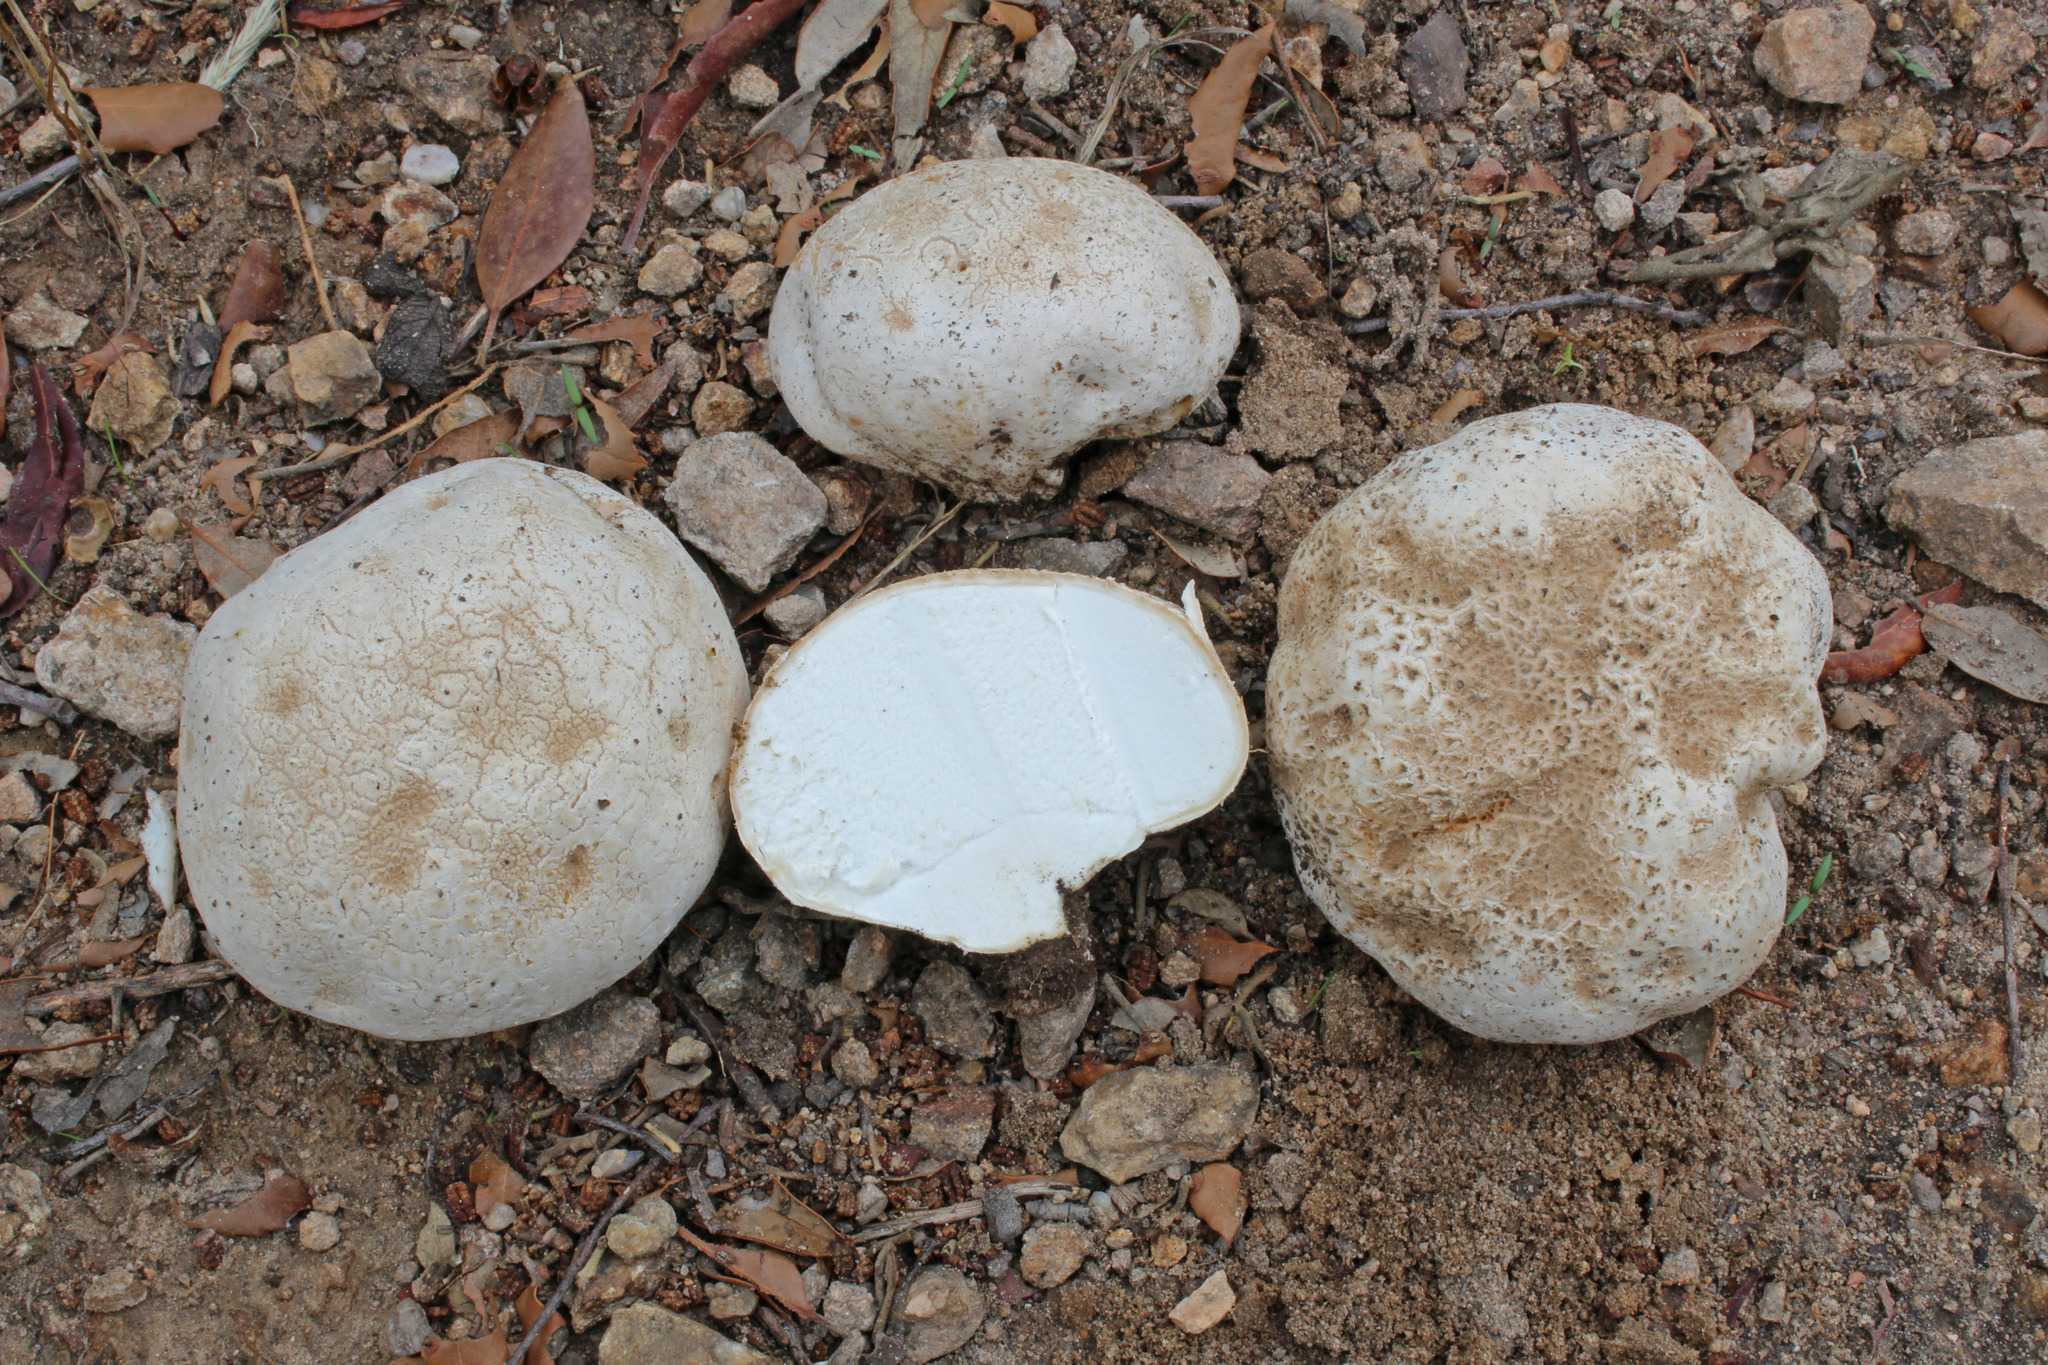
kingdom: Fungi
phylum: Basidiomycota
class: Agaricomycetes
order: Agaricales
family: Lycoperdaceae
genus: Calvatia
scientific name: Calvatia cyathiformis
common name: Purple-spored puffball
